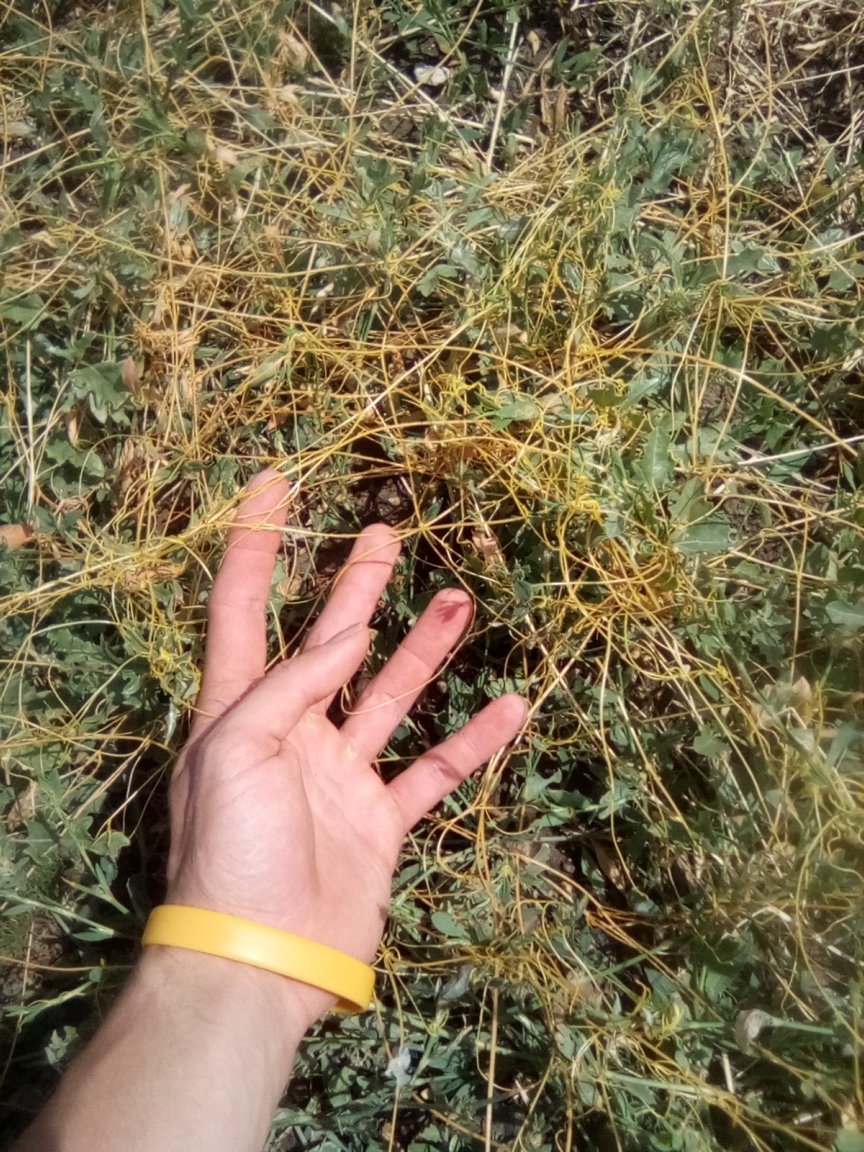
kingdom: Plantae
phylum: Tracheophyta
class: Magnoliopsida
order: Solanales
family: Convolvulaceae
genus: Cuscuta
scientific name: Cuscuta campestris
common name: Yellow dodder
